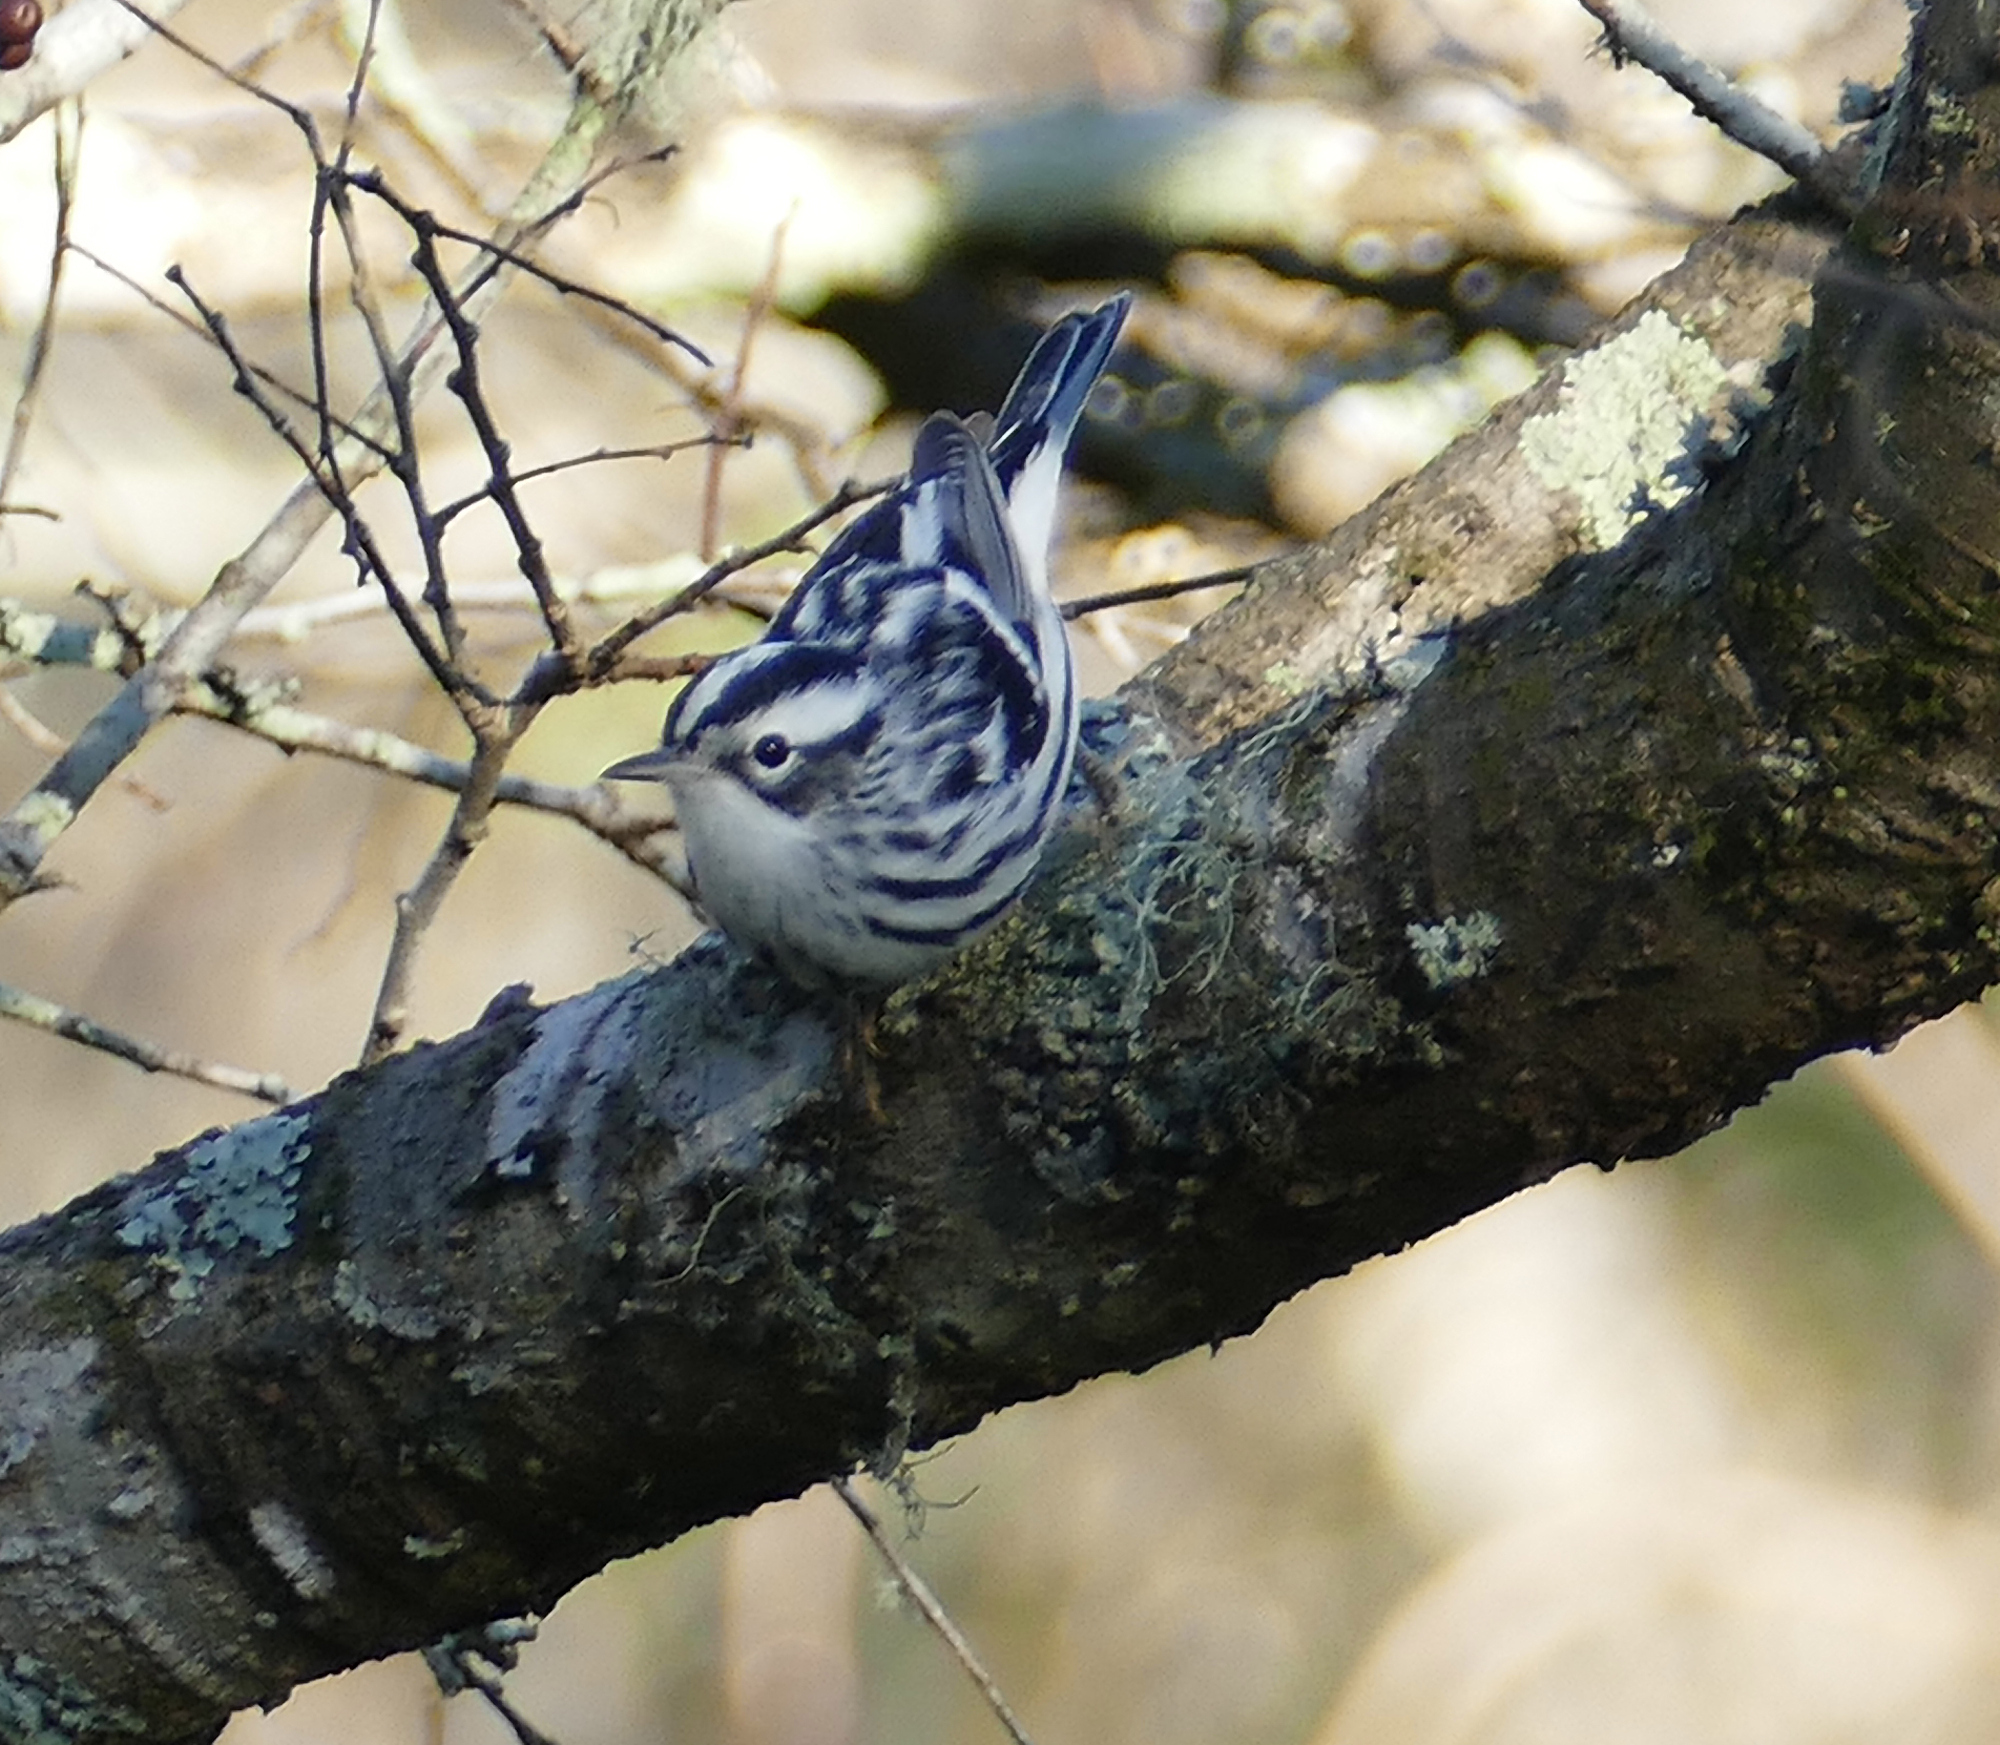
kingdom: Animalia
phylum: Chordata
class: Aves
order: Passeriformes
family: Parulidae
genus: Mniotilta
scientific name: Mniotilta varia
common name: Black-and-white warbler
